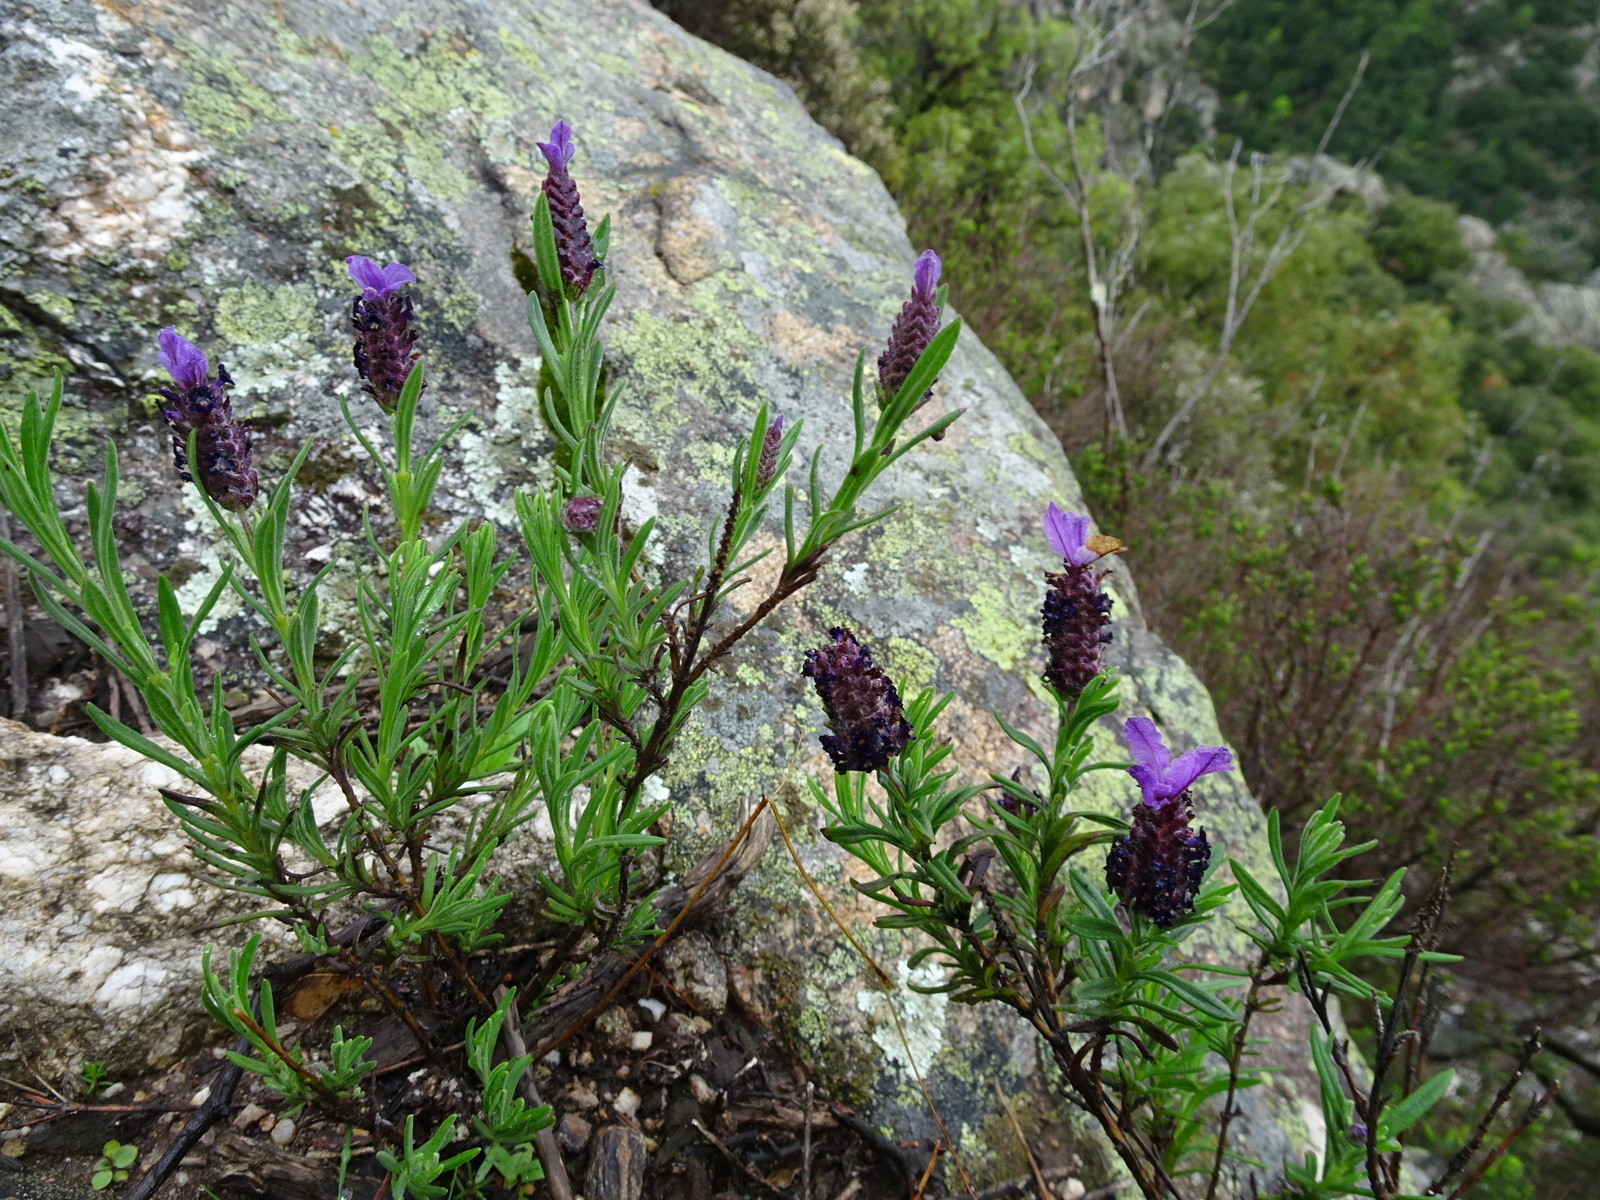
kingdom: Plantae
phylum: Tracheophyta
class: Magnoliopsida
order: Lamiales
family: Lamiaceae
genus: Lavandula
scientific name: Lavandula stoechas
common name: French lavender
